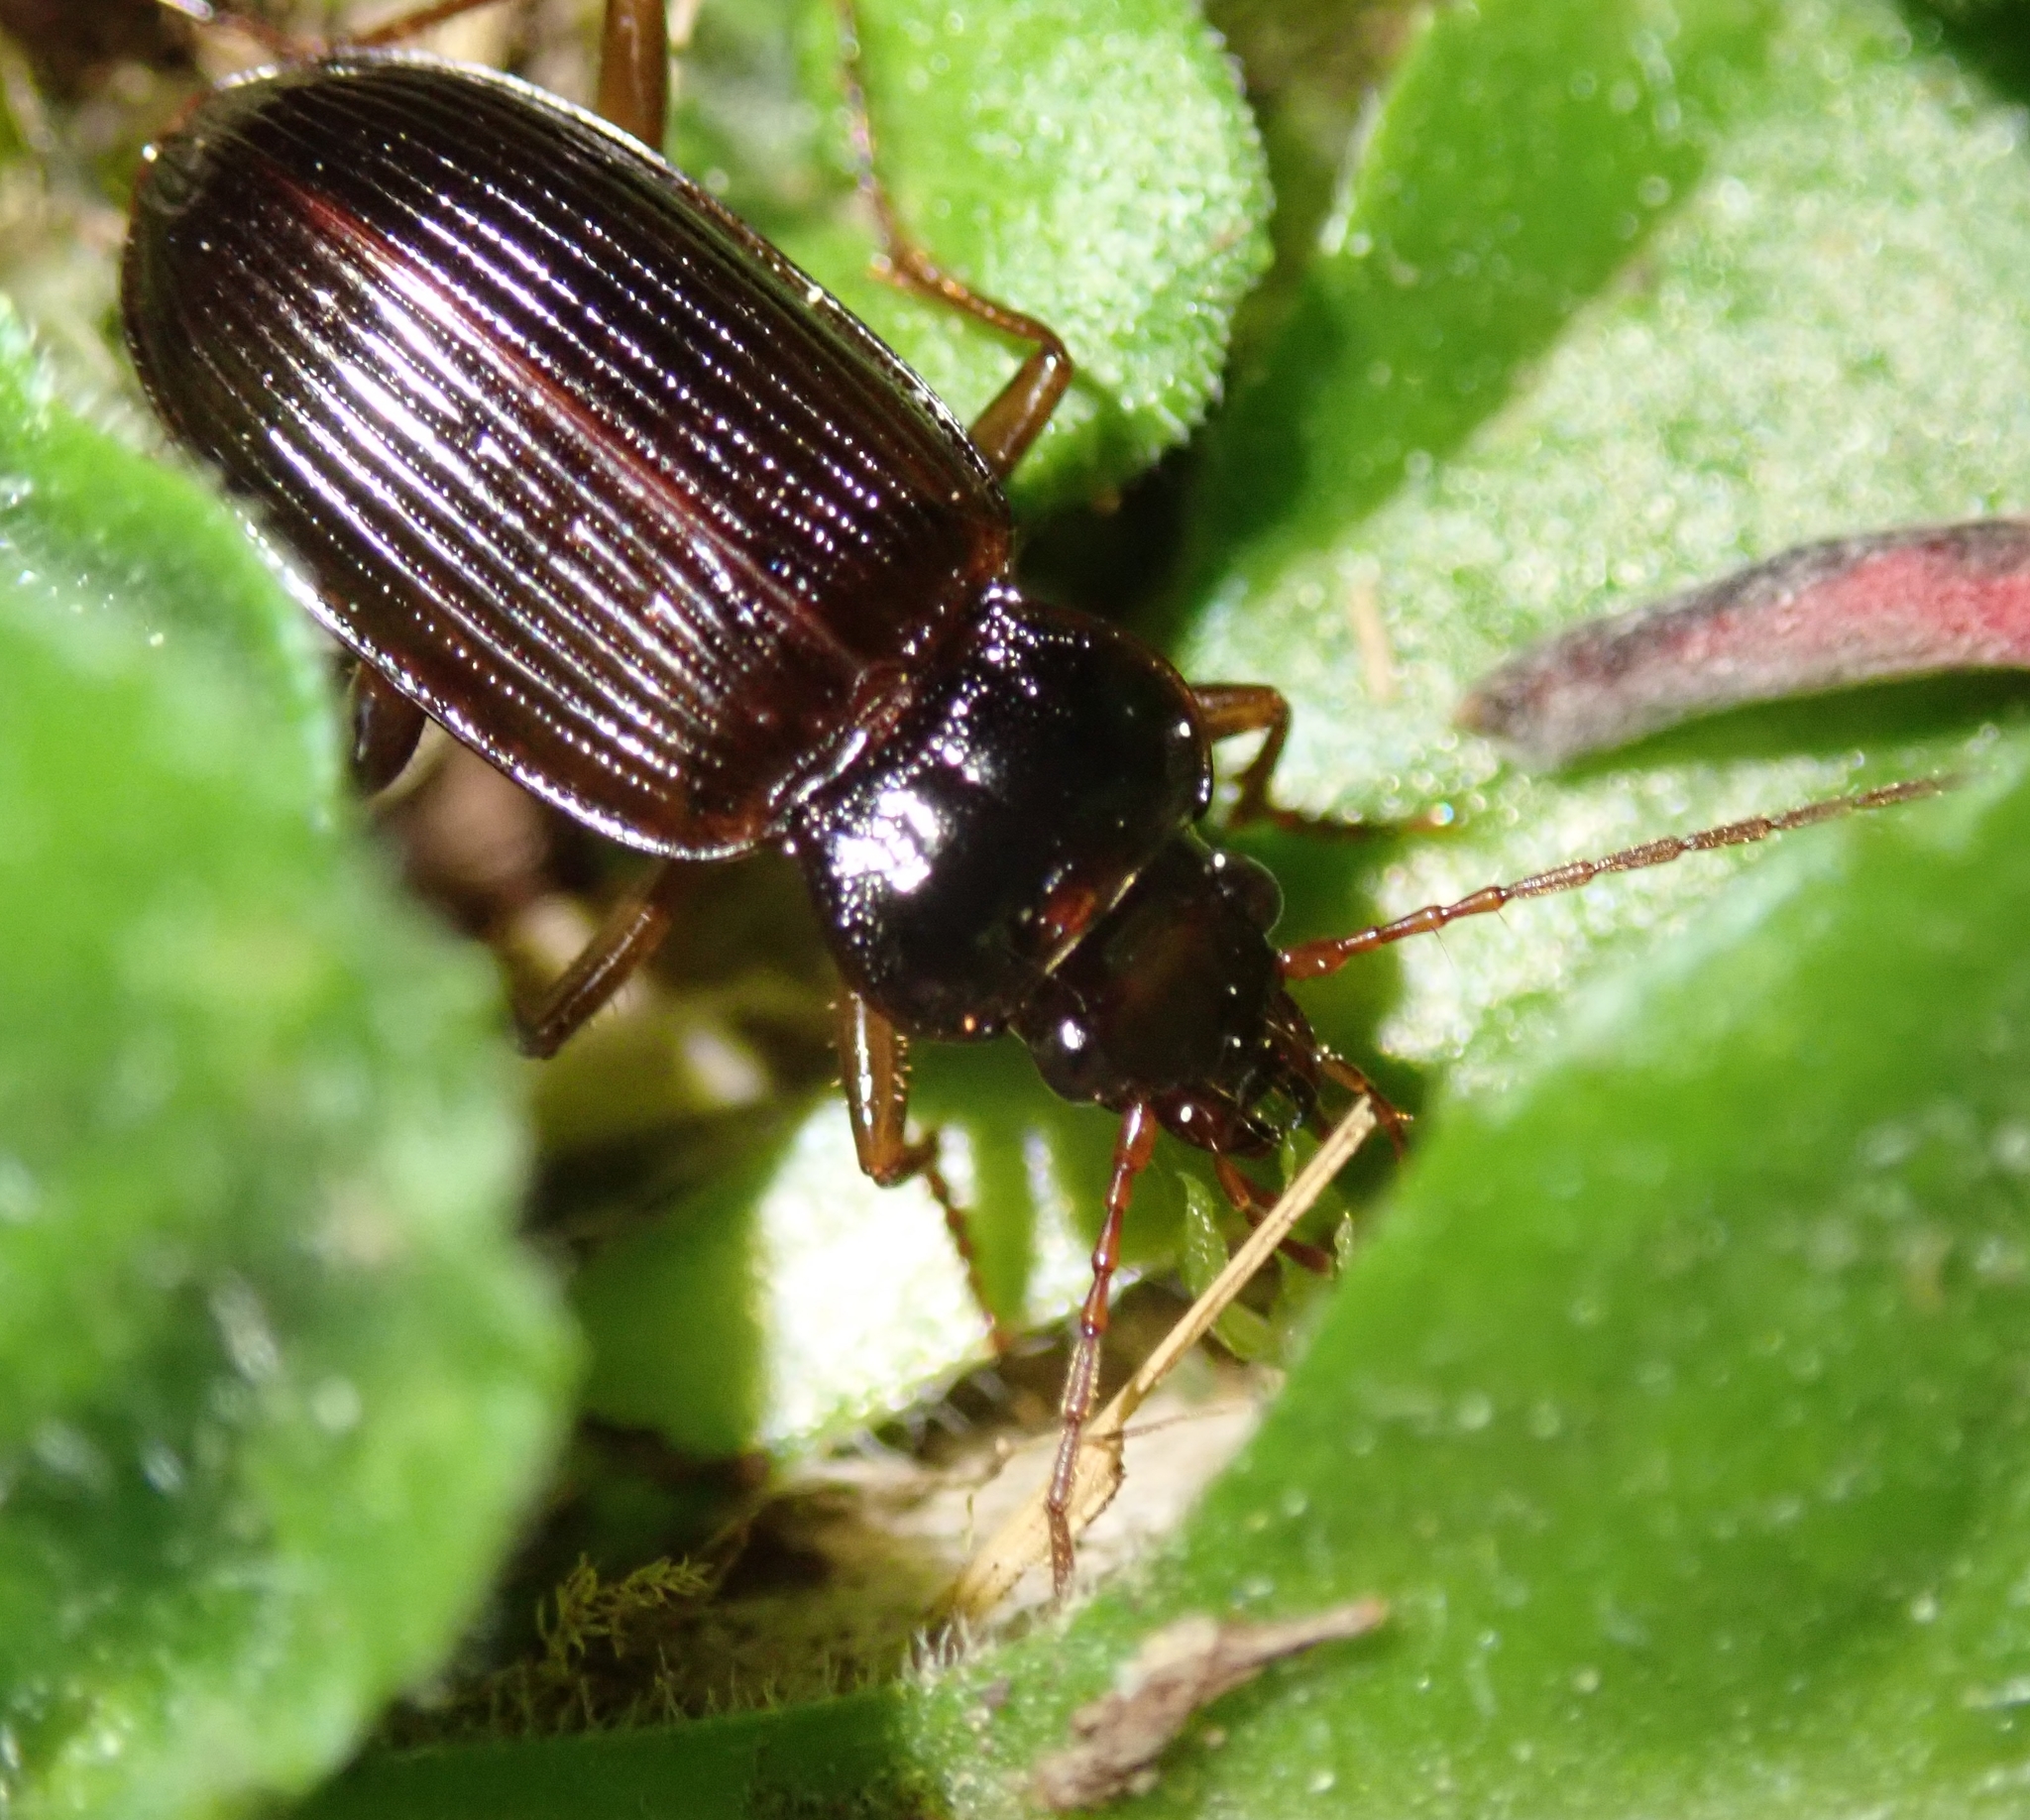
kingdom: Animalia
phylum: Arthropoda
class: Insecta
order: Coleoptera
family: Carabidae
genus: Nebria
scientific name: Nebria brevicollis
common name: Short-necked gazelle beetle
